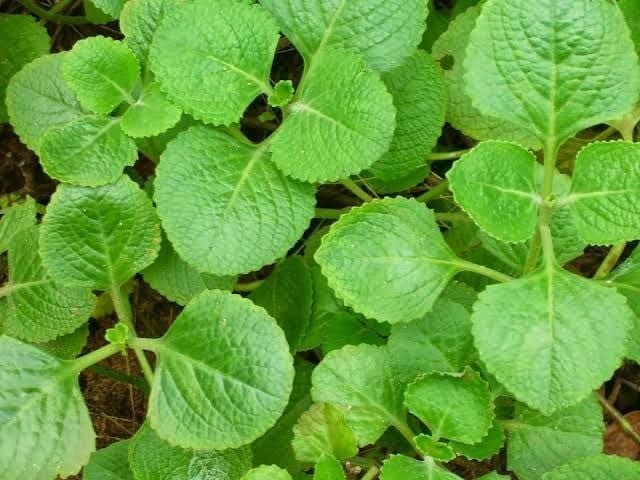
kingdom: Plantae
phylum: Tracheophyta
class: Magnoliopsida
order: Lamiales
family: Lamiaceae
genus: Coleus
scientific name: Coleus amboinicus
